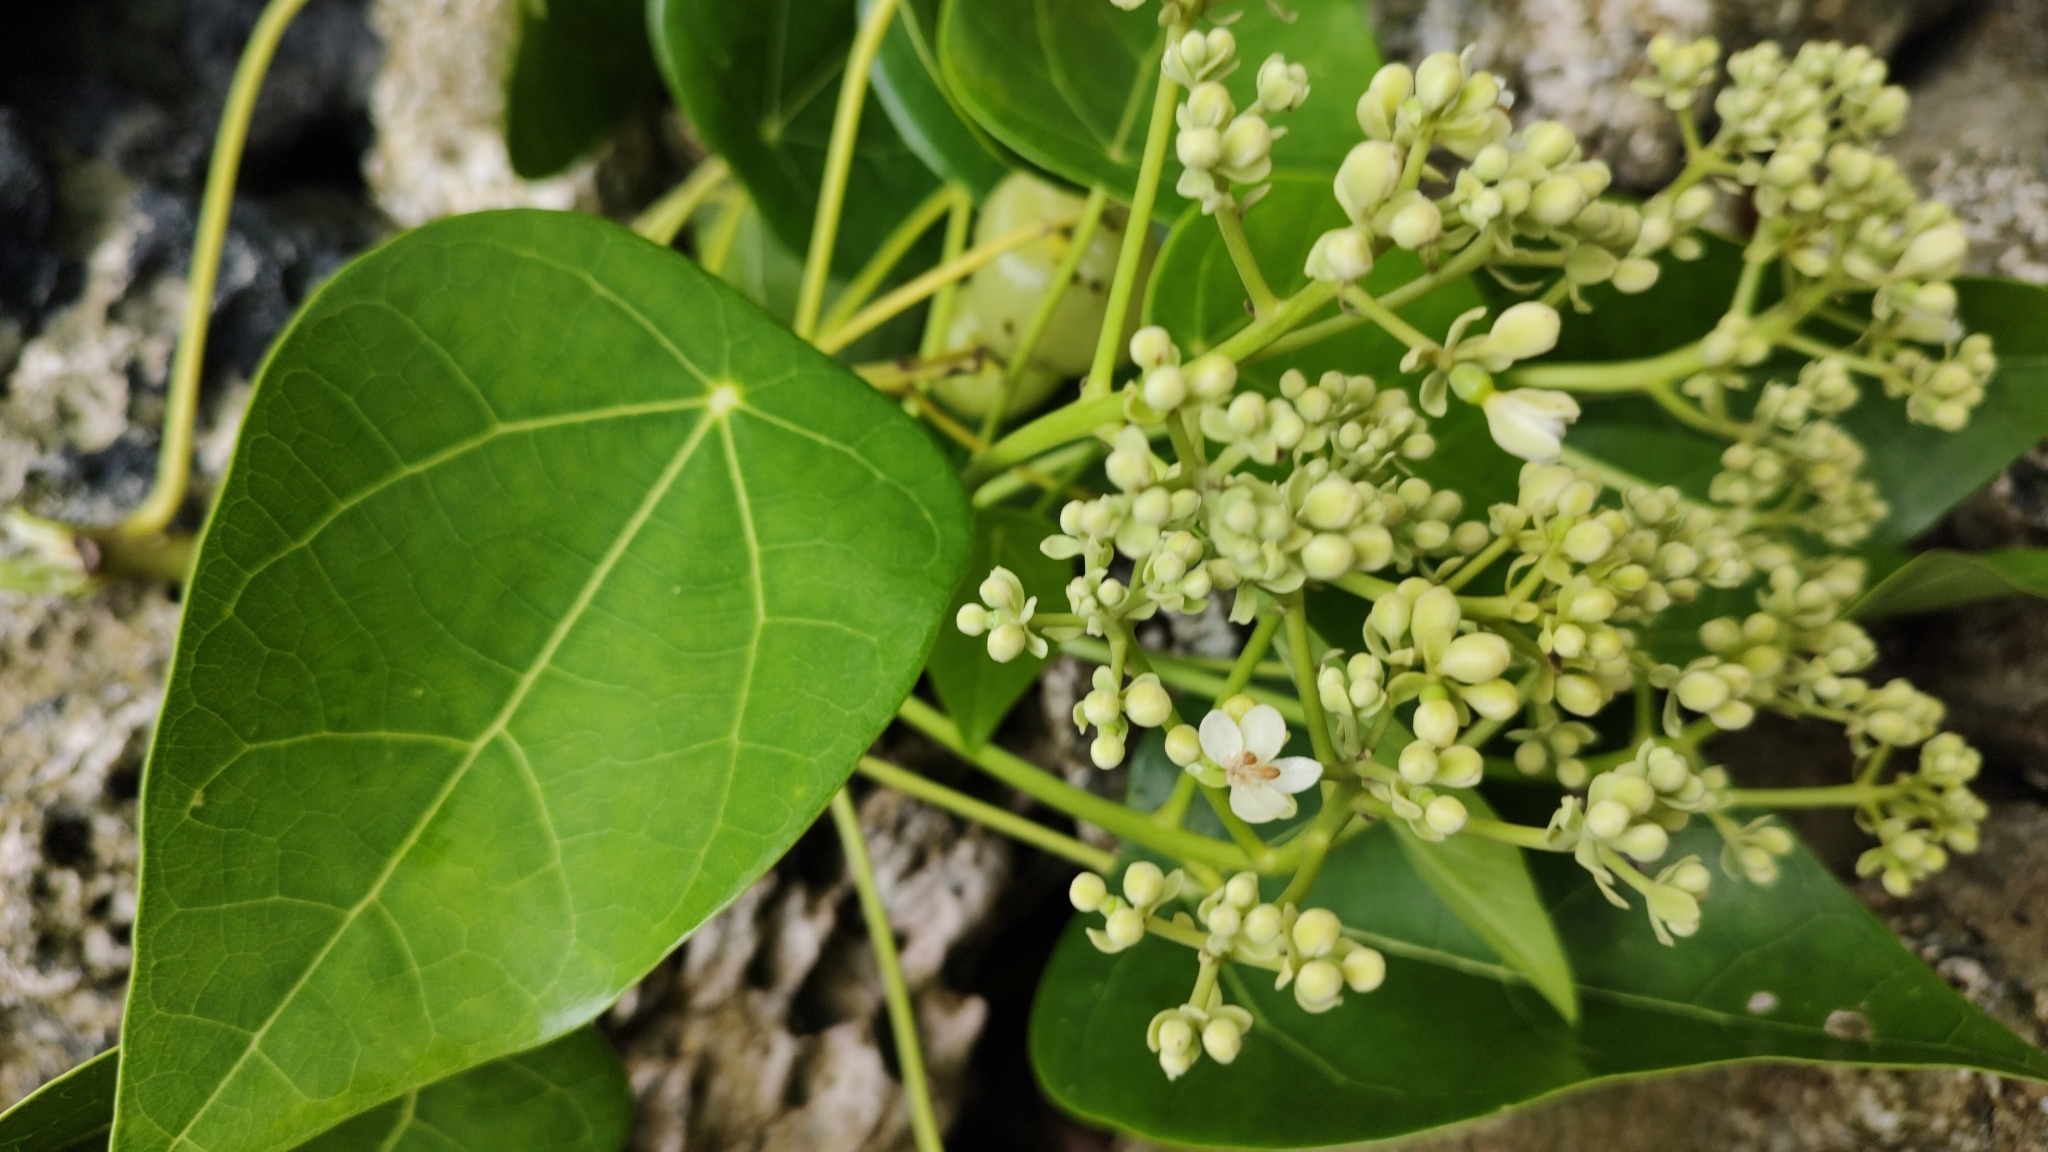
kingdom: Plantae
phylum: Tracheophyta
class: Magnoliopsida
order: Laurales
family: Hernandiaceae
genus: Hernandia
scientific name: Hernandia nymphaeifolia
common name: Sea hearse
